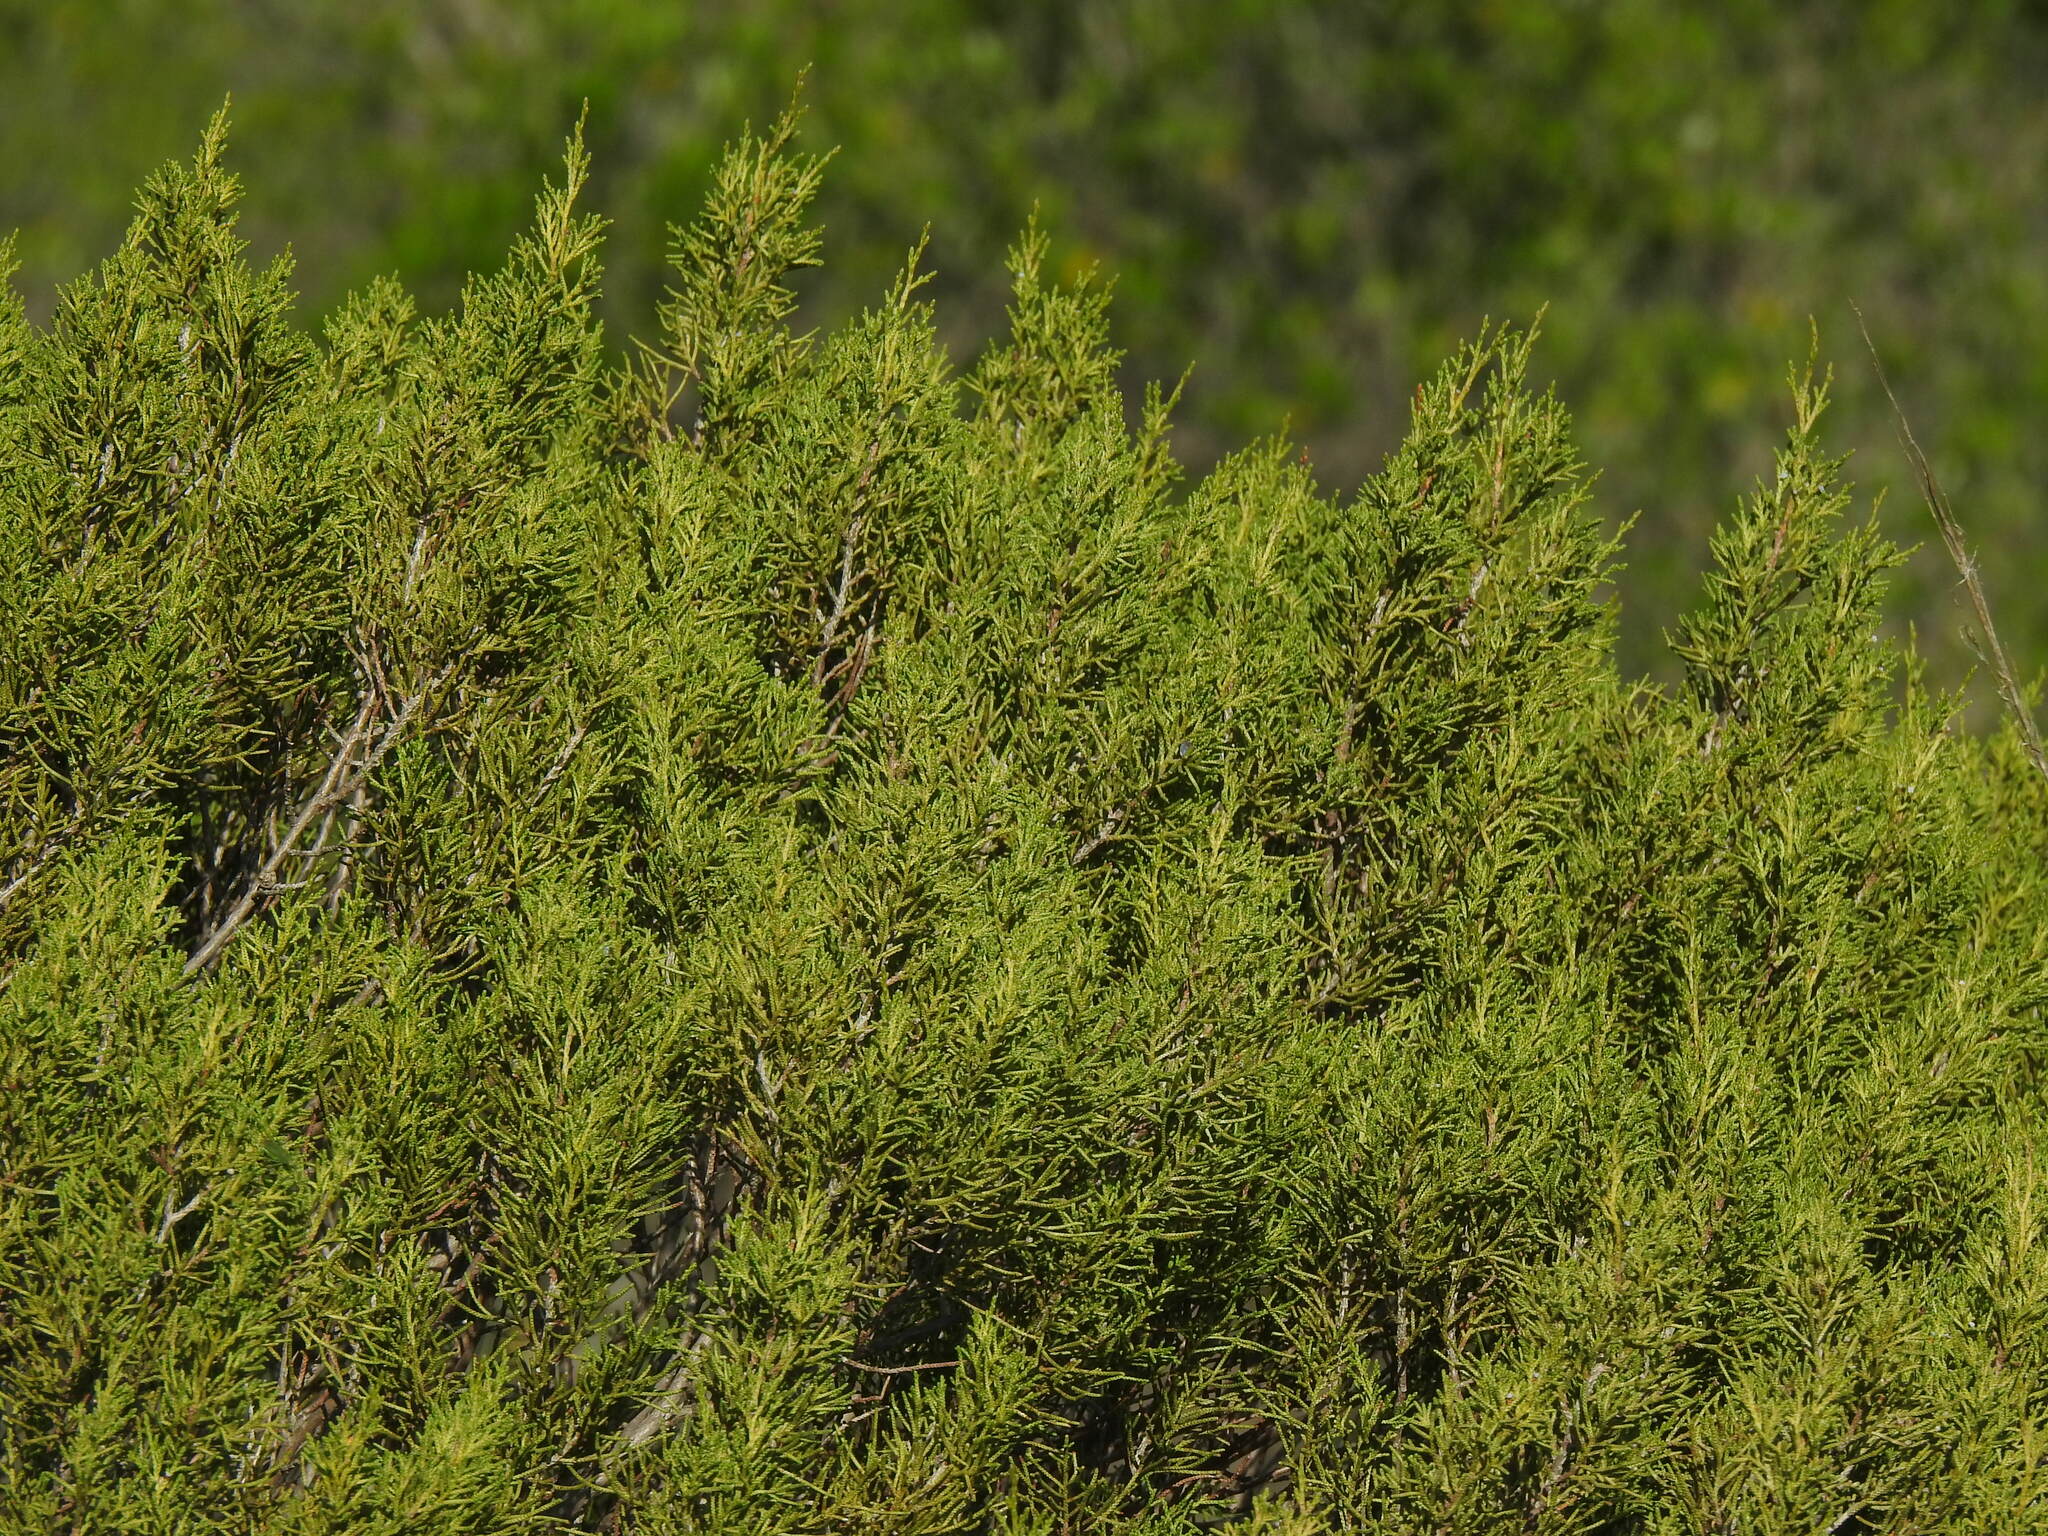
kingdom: Plantae
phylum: Tracheophyta
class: Pinopsida
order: Pinales
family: Cupressaceae
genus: Juniperus
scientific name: Juniperus phoenicea
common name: Phoenician juniper
